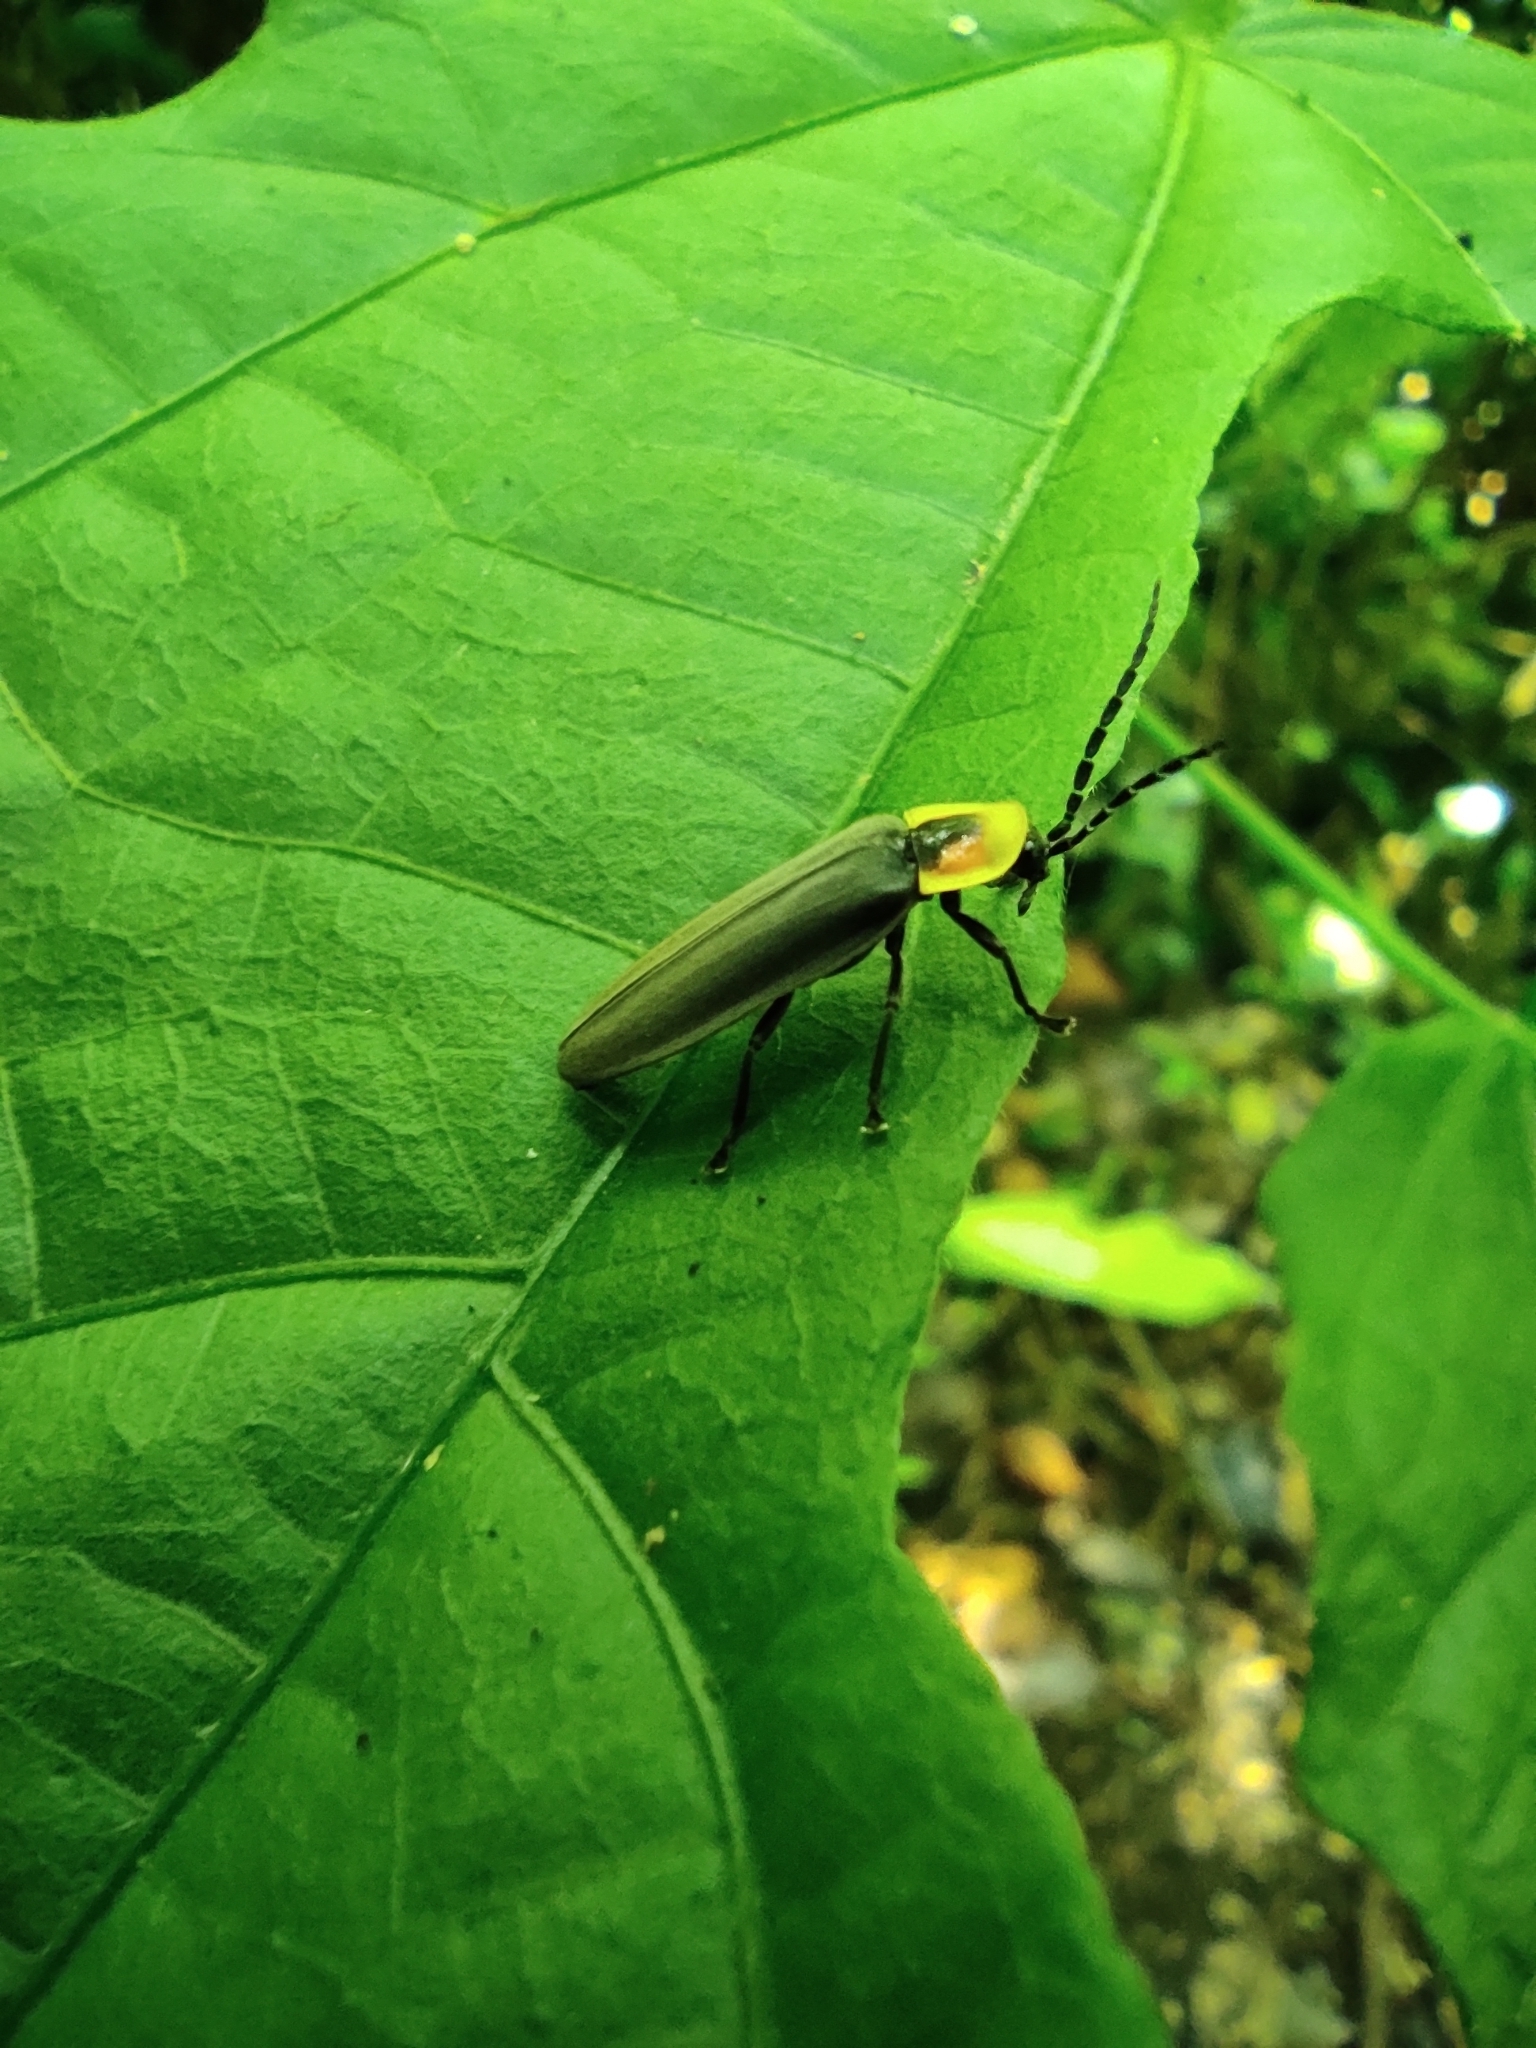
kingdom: Animalia
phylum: Arthropoda
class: Insecta
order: Coleoptera
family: Lampyridae
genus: Photinus
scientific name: Photinus aurora
